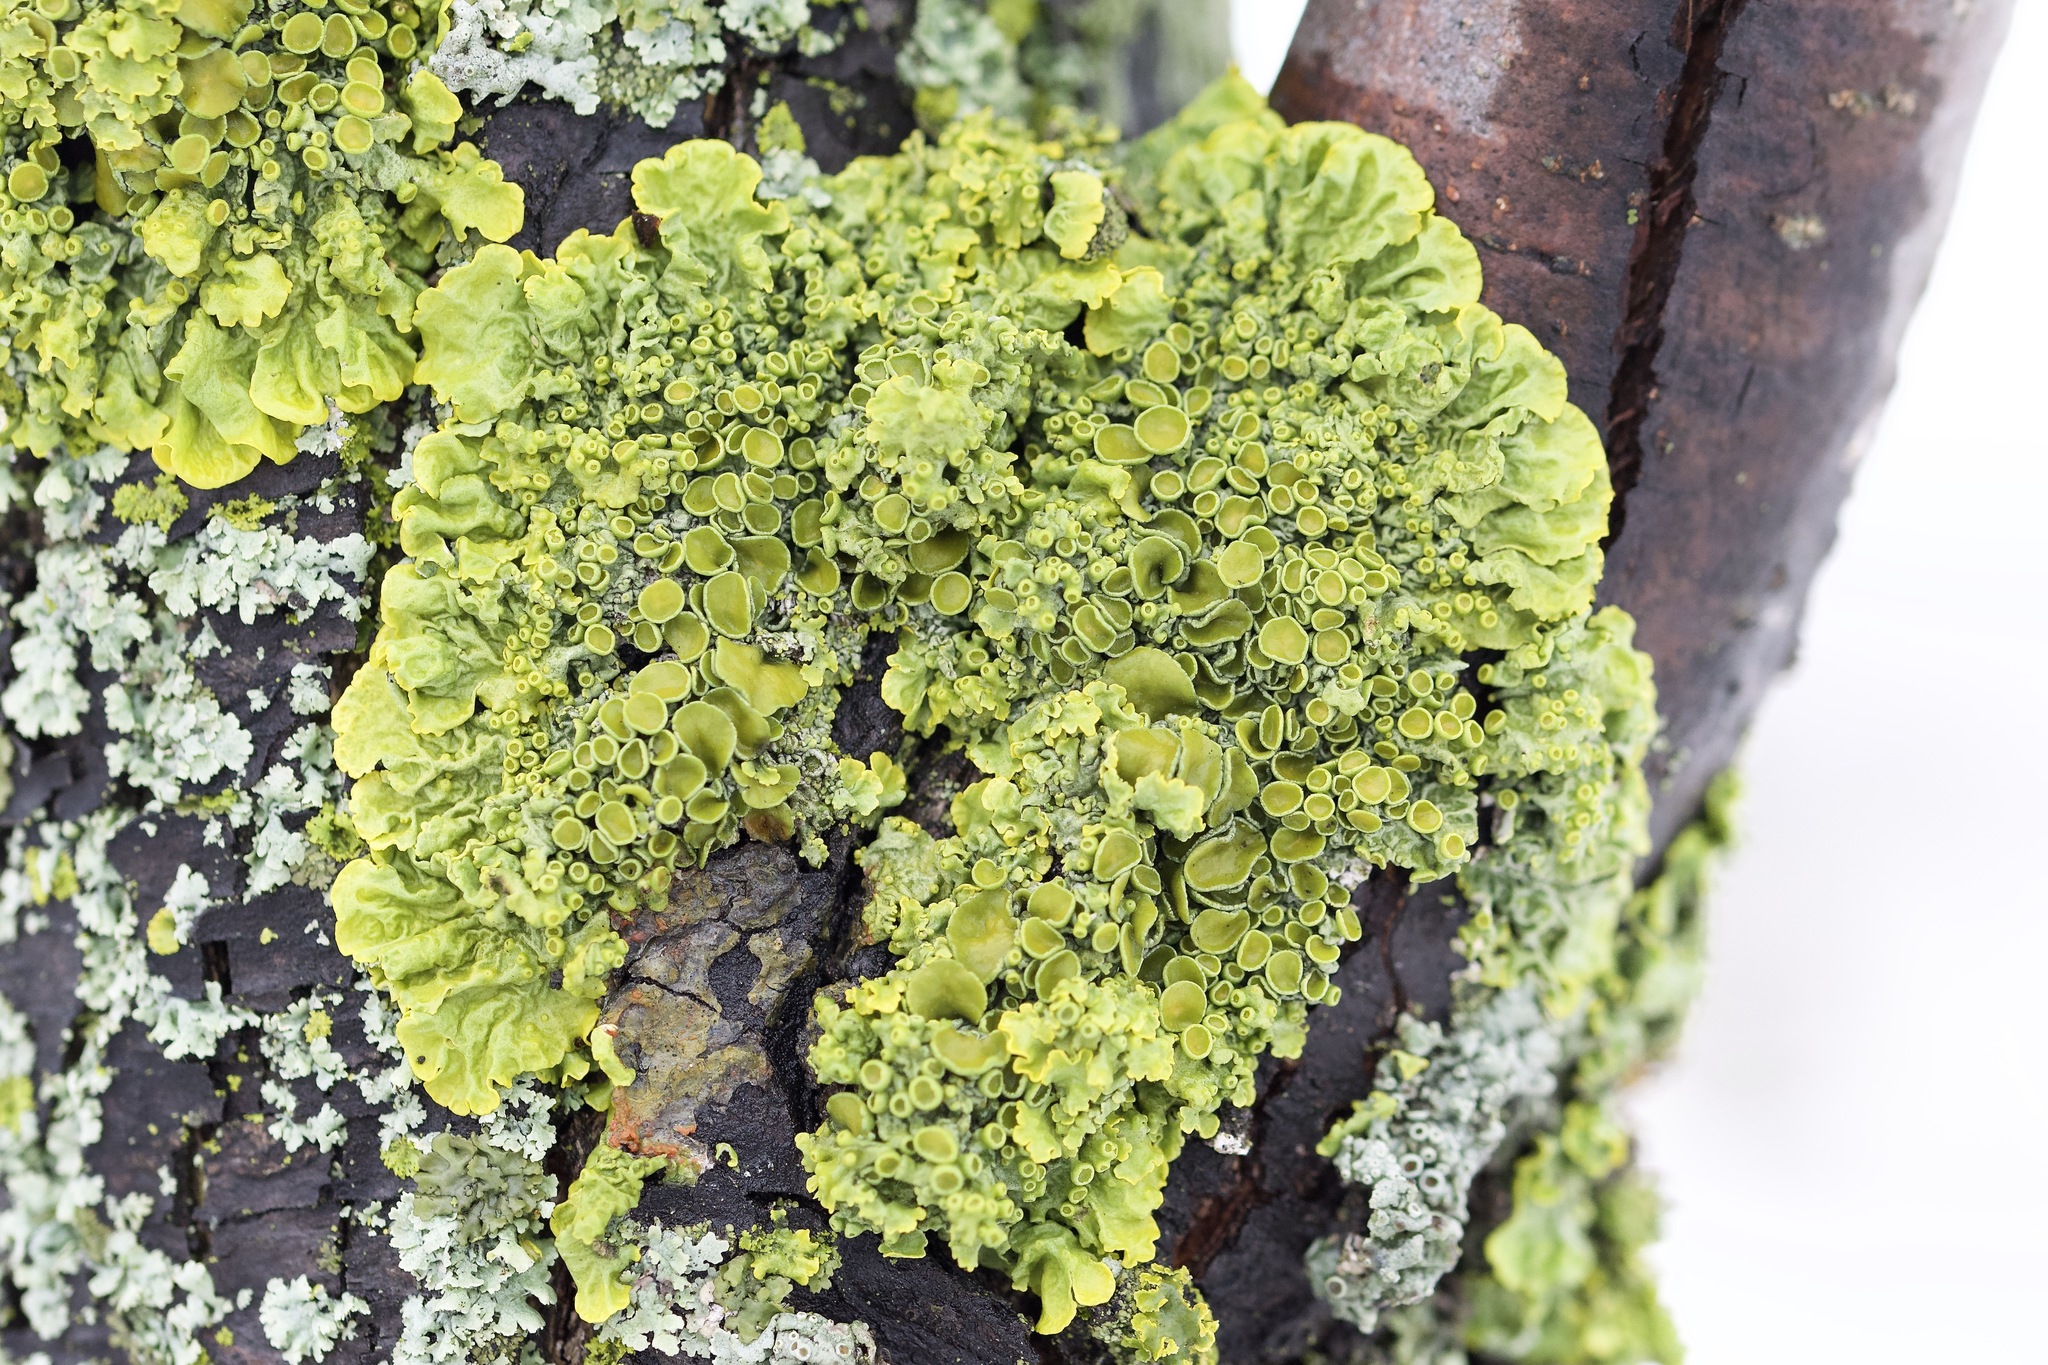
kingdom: Fungi
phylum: Ascomycota
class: Lecanoromycetes
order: Teloschistales
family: Teloschistaceae
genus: Xanthoria
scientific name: Xanthoria parietina
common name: Common orange lichen
